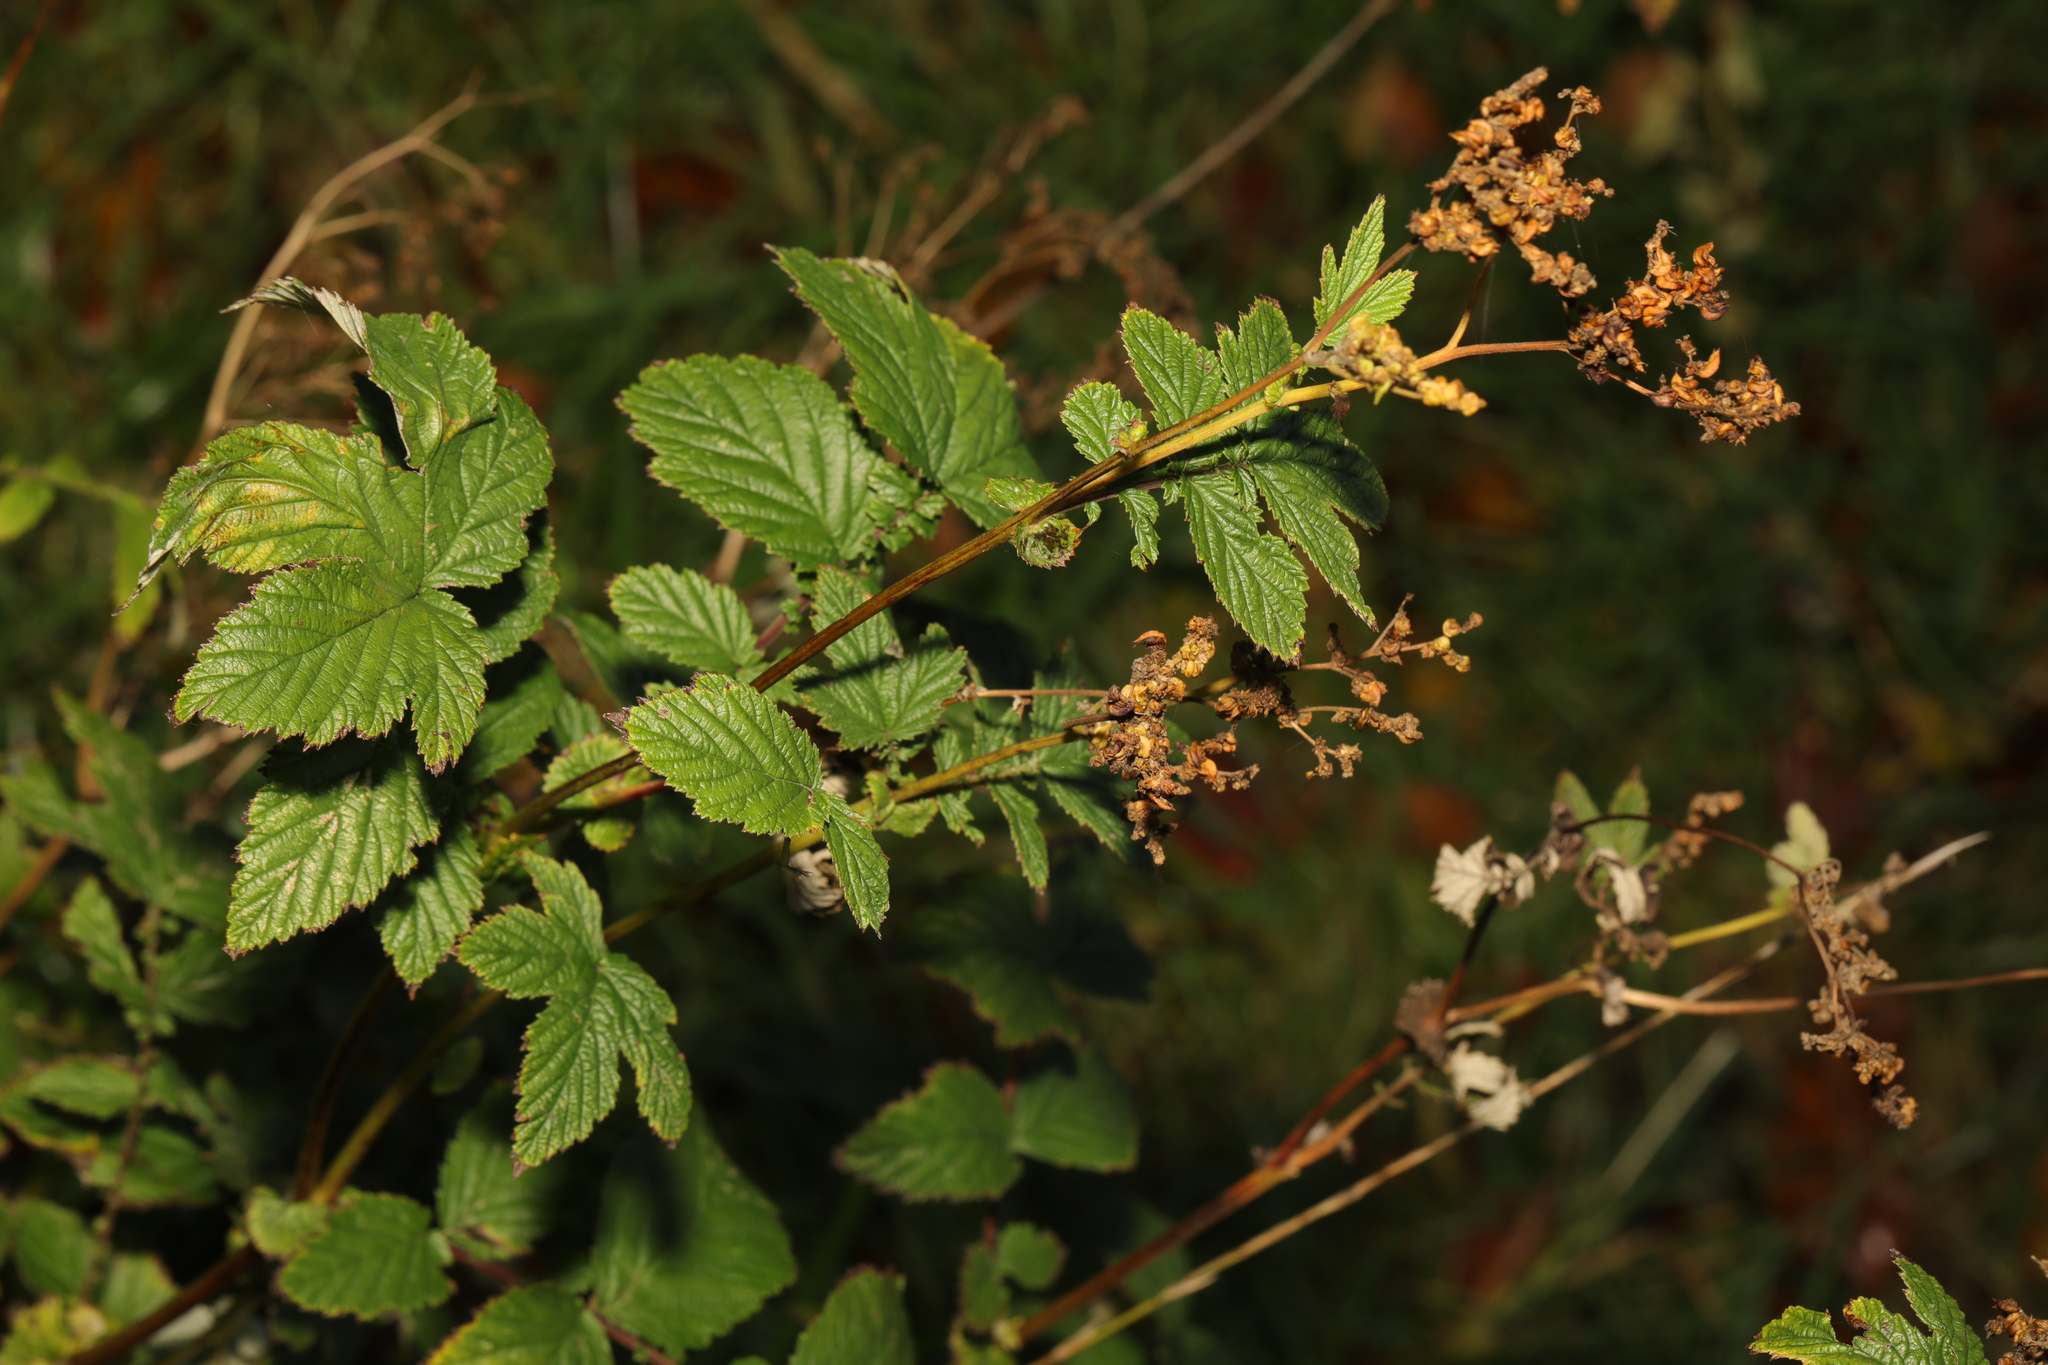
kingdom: Plantae
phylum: Tracheophyta
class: Magnoliopsida
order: Rosales
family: Rosaceae
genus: Filipendula
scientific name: Filipendula ulmaria
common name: Meadowsweet
